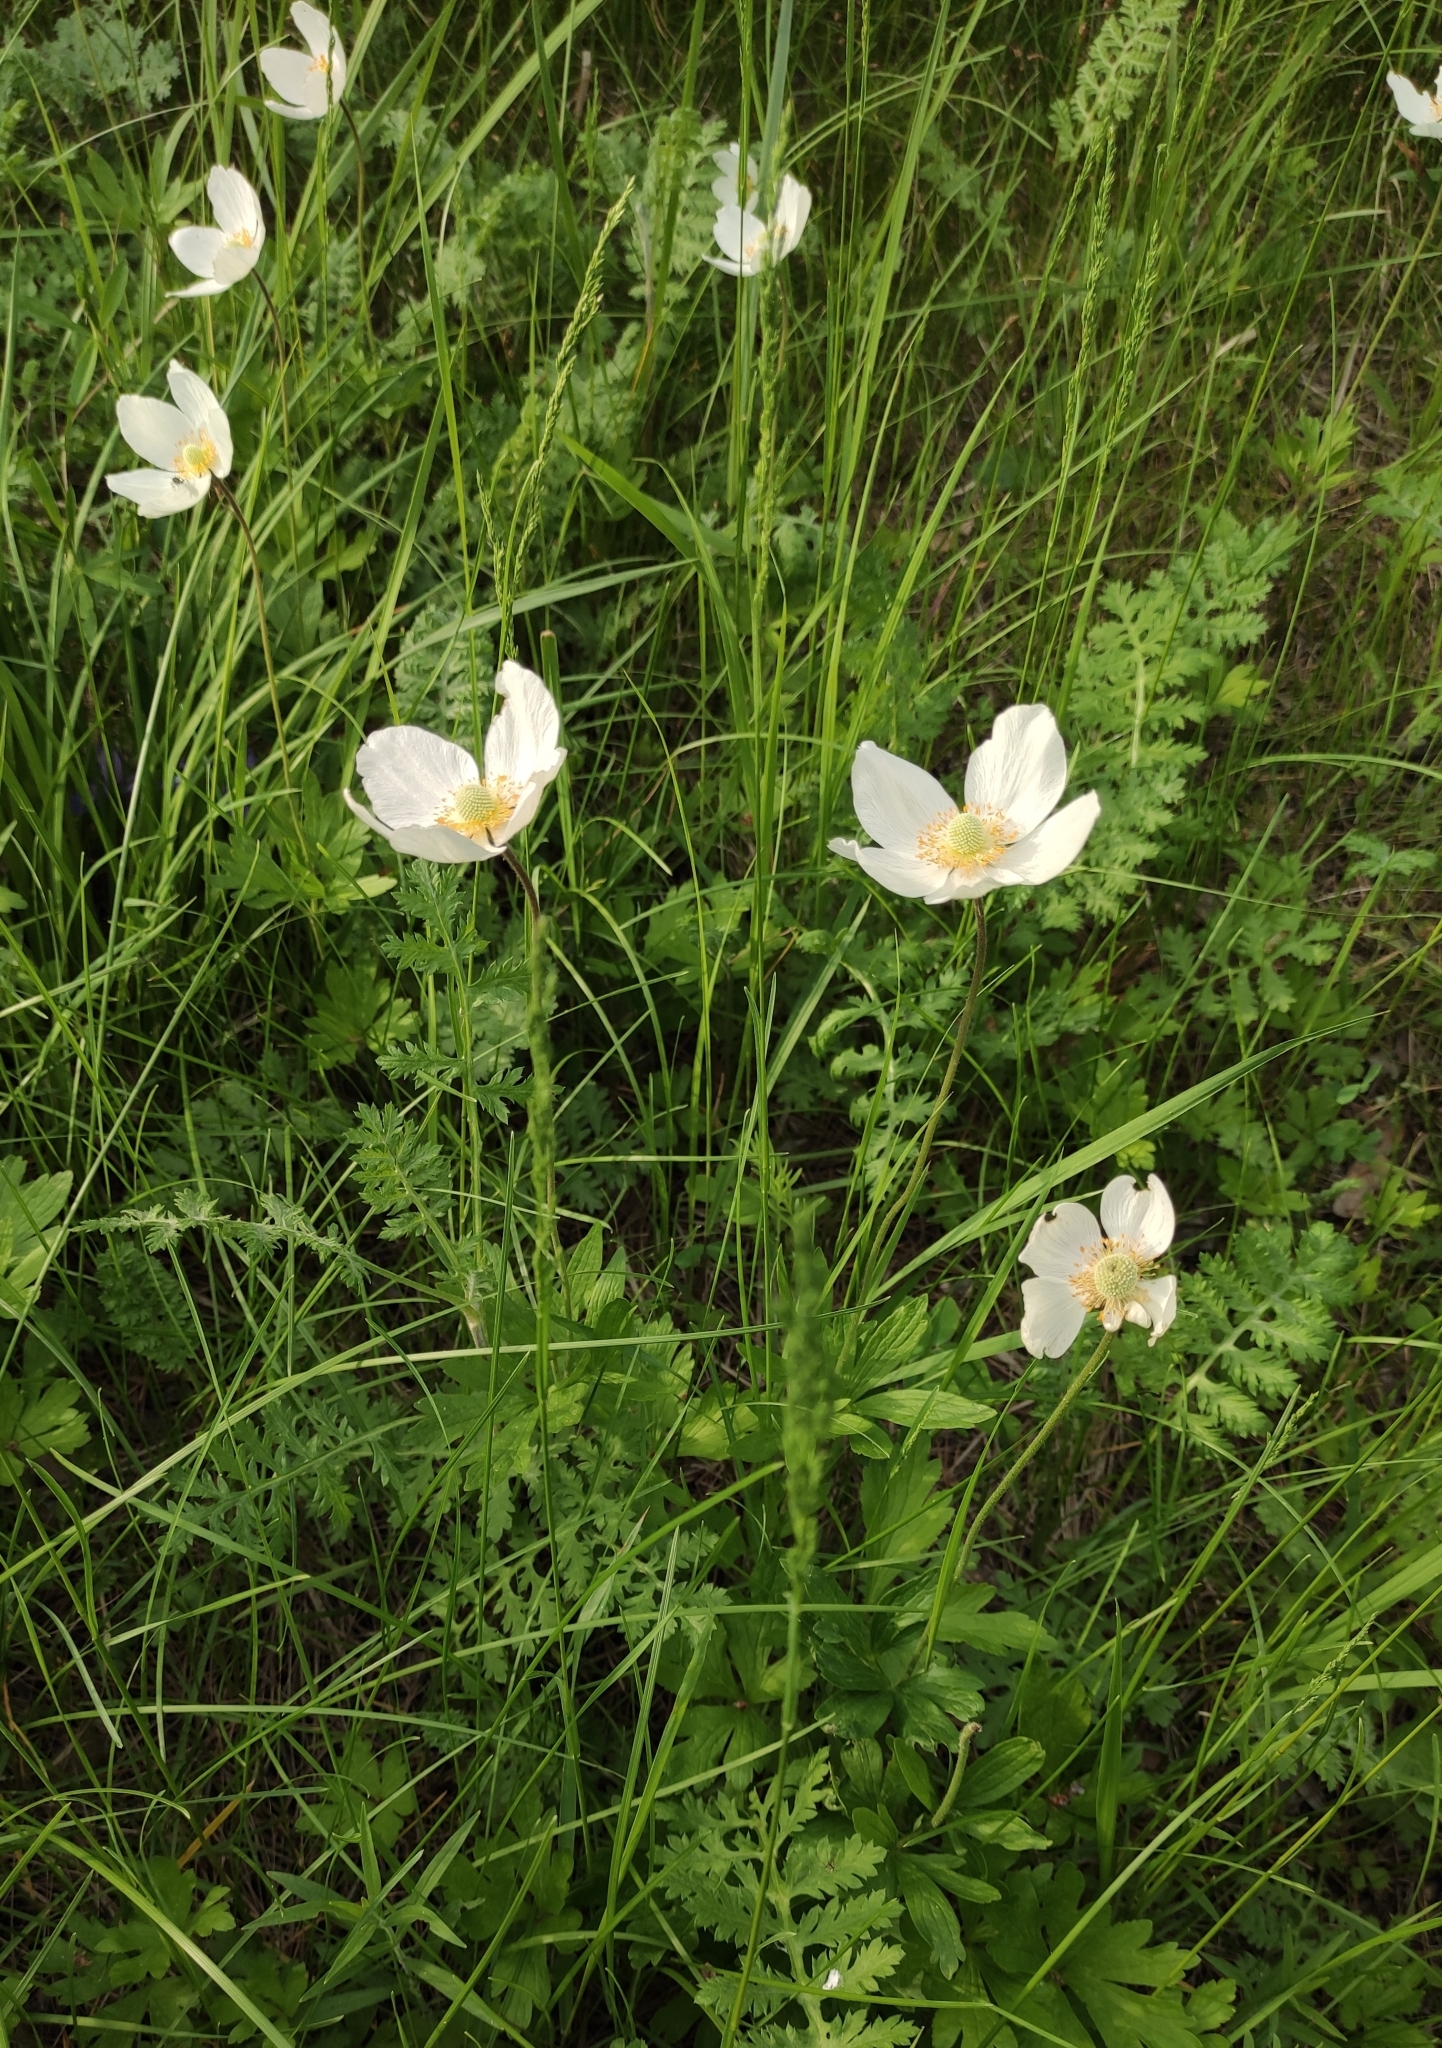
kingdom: Plantae
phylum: Tracheophyta
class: Magnoliopsida
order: Ranunculales
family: Ranunculaceae
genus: Anemone
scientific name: Anemone sylvestris
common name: Snowdrop anemone
